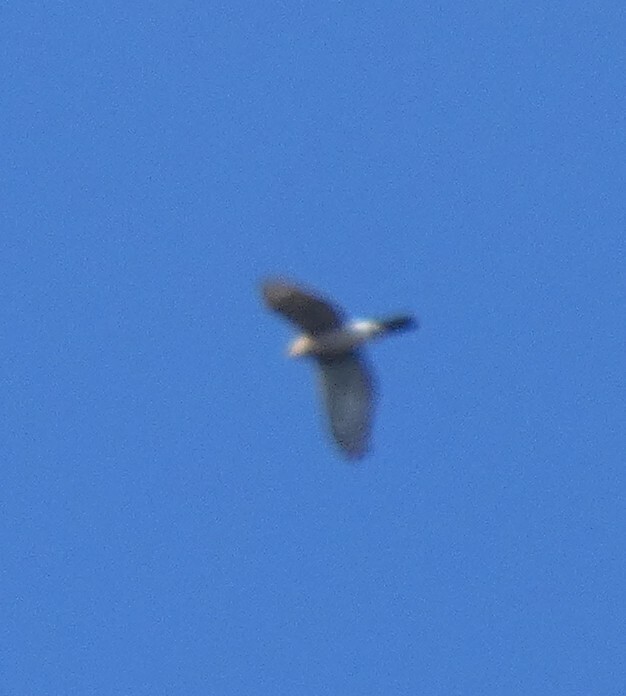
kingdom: Animalia
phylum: Chordata
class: Aves
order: Accipitriformes
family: Accipitridae
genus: Accipiter
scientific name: Accipiter nisus
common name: Eurasian sparrowhawk
